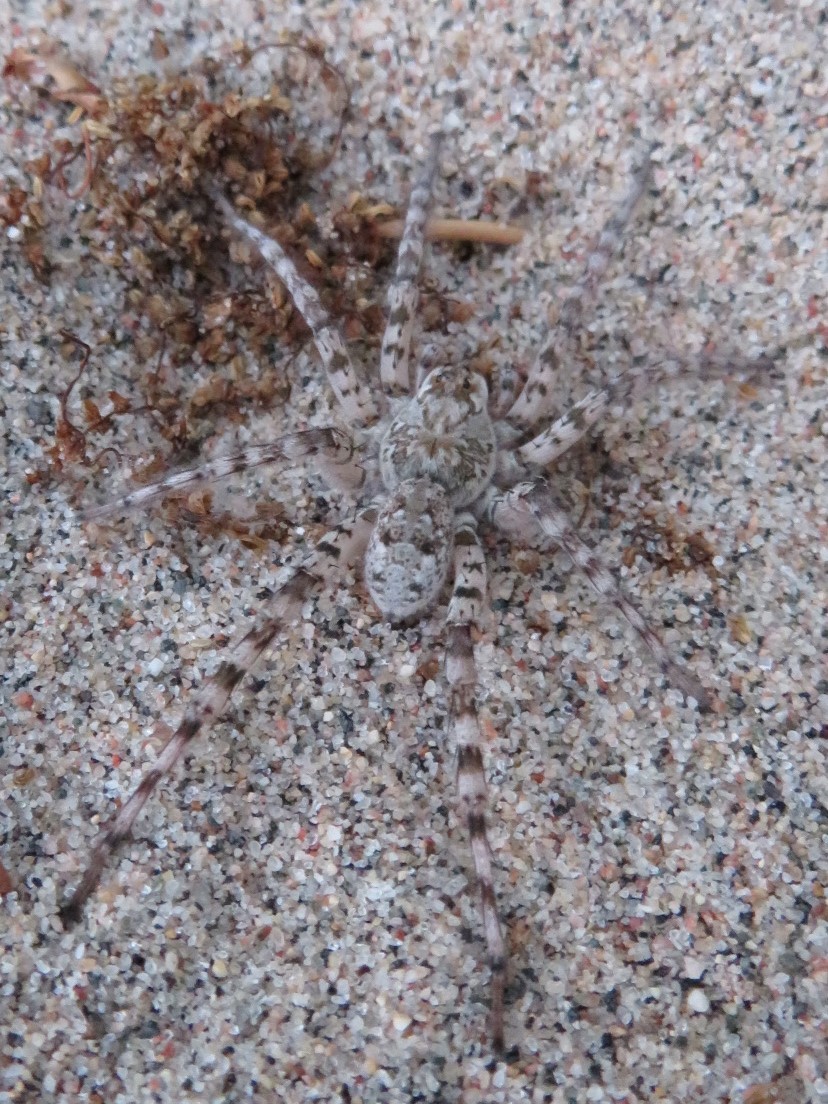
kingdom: Animalia
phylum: Arthropoda
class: Arachnida
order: Araneae
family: Lycosidae
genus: Arctosa
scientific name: Arctosa littoralis
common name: Wolf spiders
